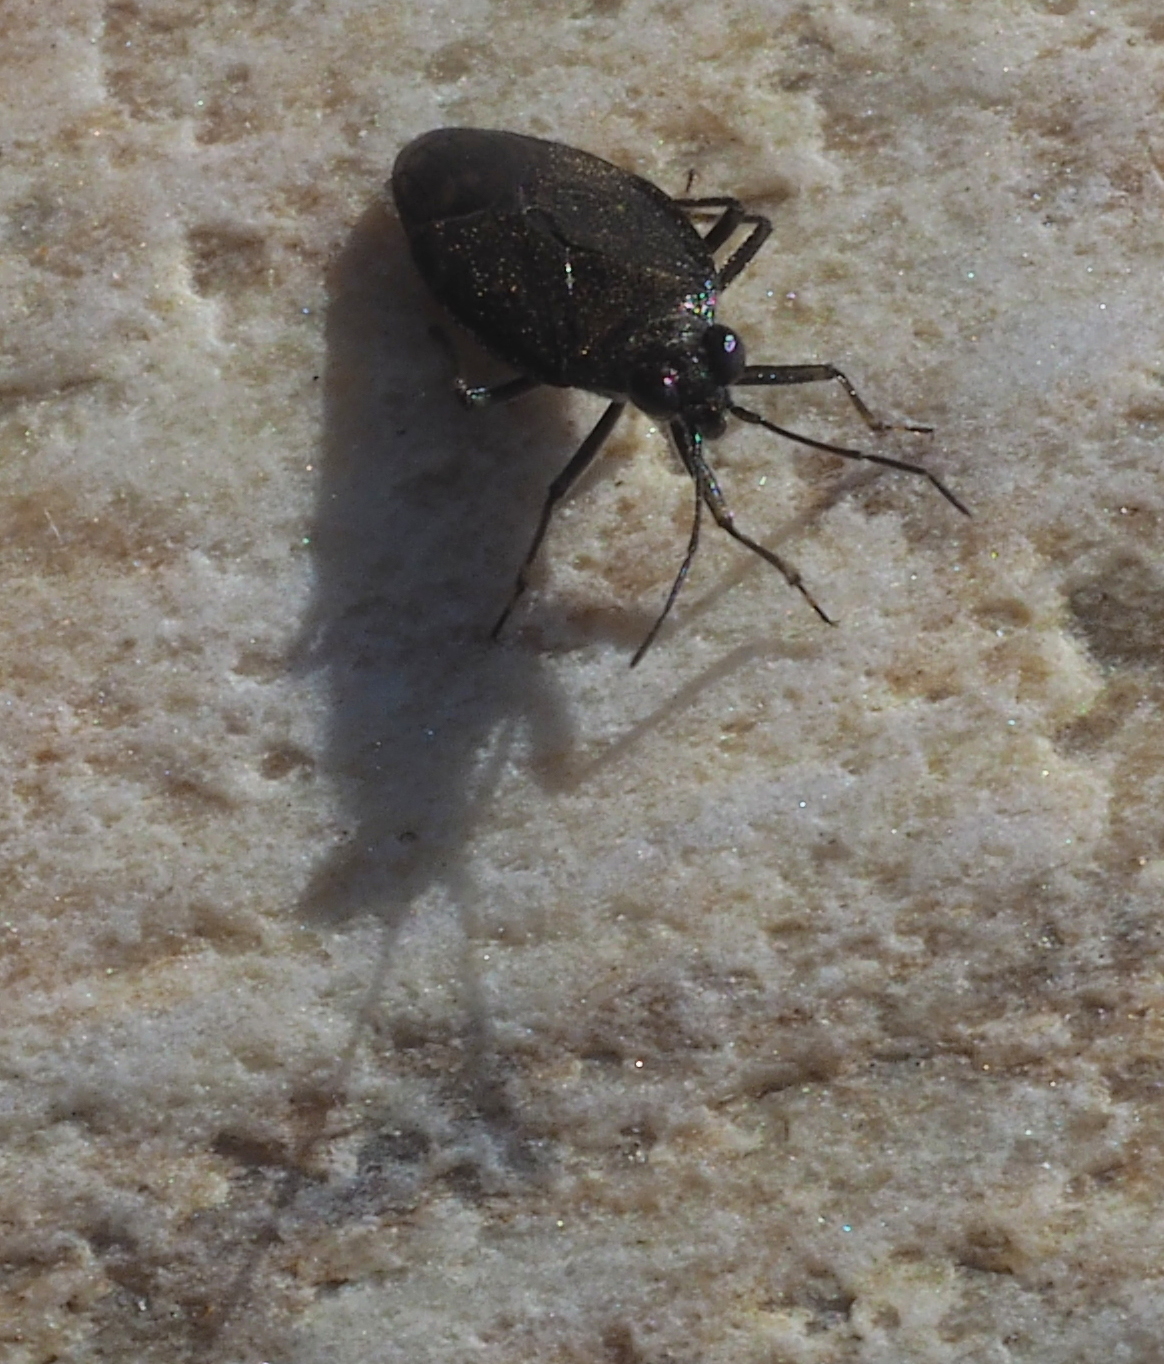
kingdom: Animalia
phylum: Arthropoda
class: Insecta
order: Hemiptera
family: Saldidae
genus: Macrosaldula
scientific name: Macrosaldula scotica
